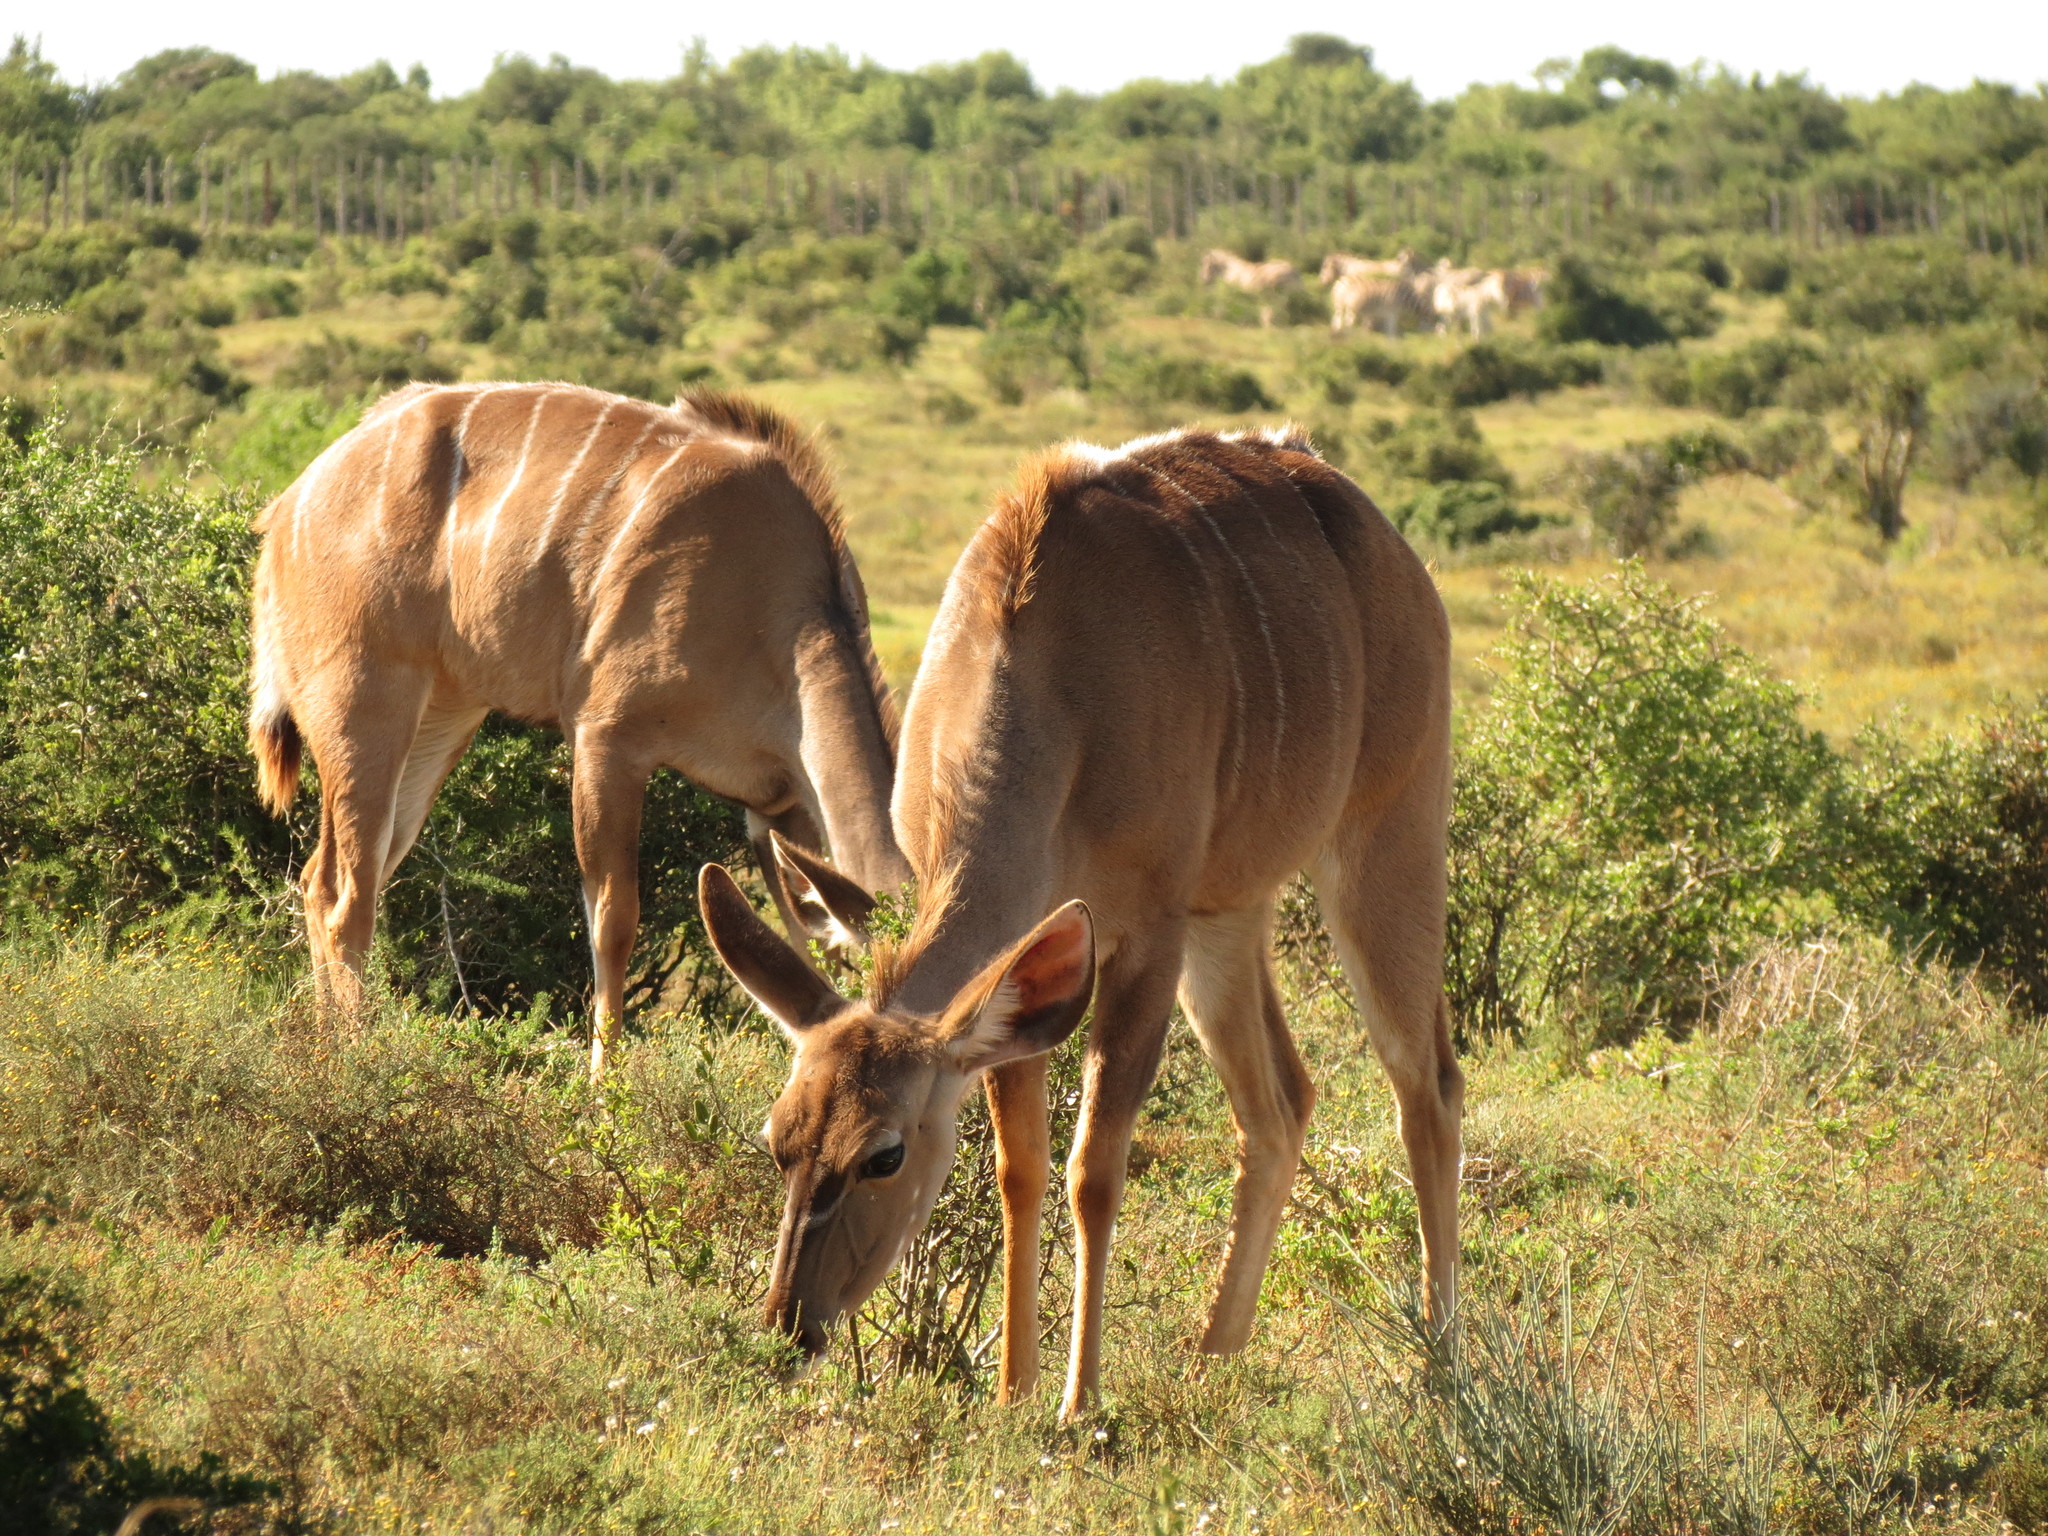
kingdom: Animalia
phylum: Chordata
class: Mammalia
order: Artiodactyla
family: Bovidae
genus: Tragelaphus
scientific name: Tragelaphus strepsiceros
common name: Greater kudu
